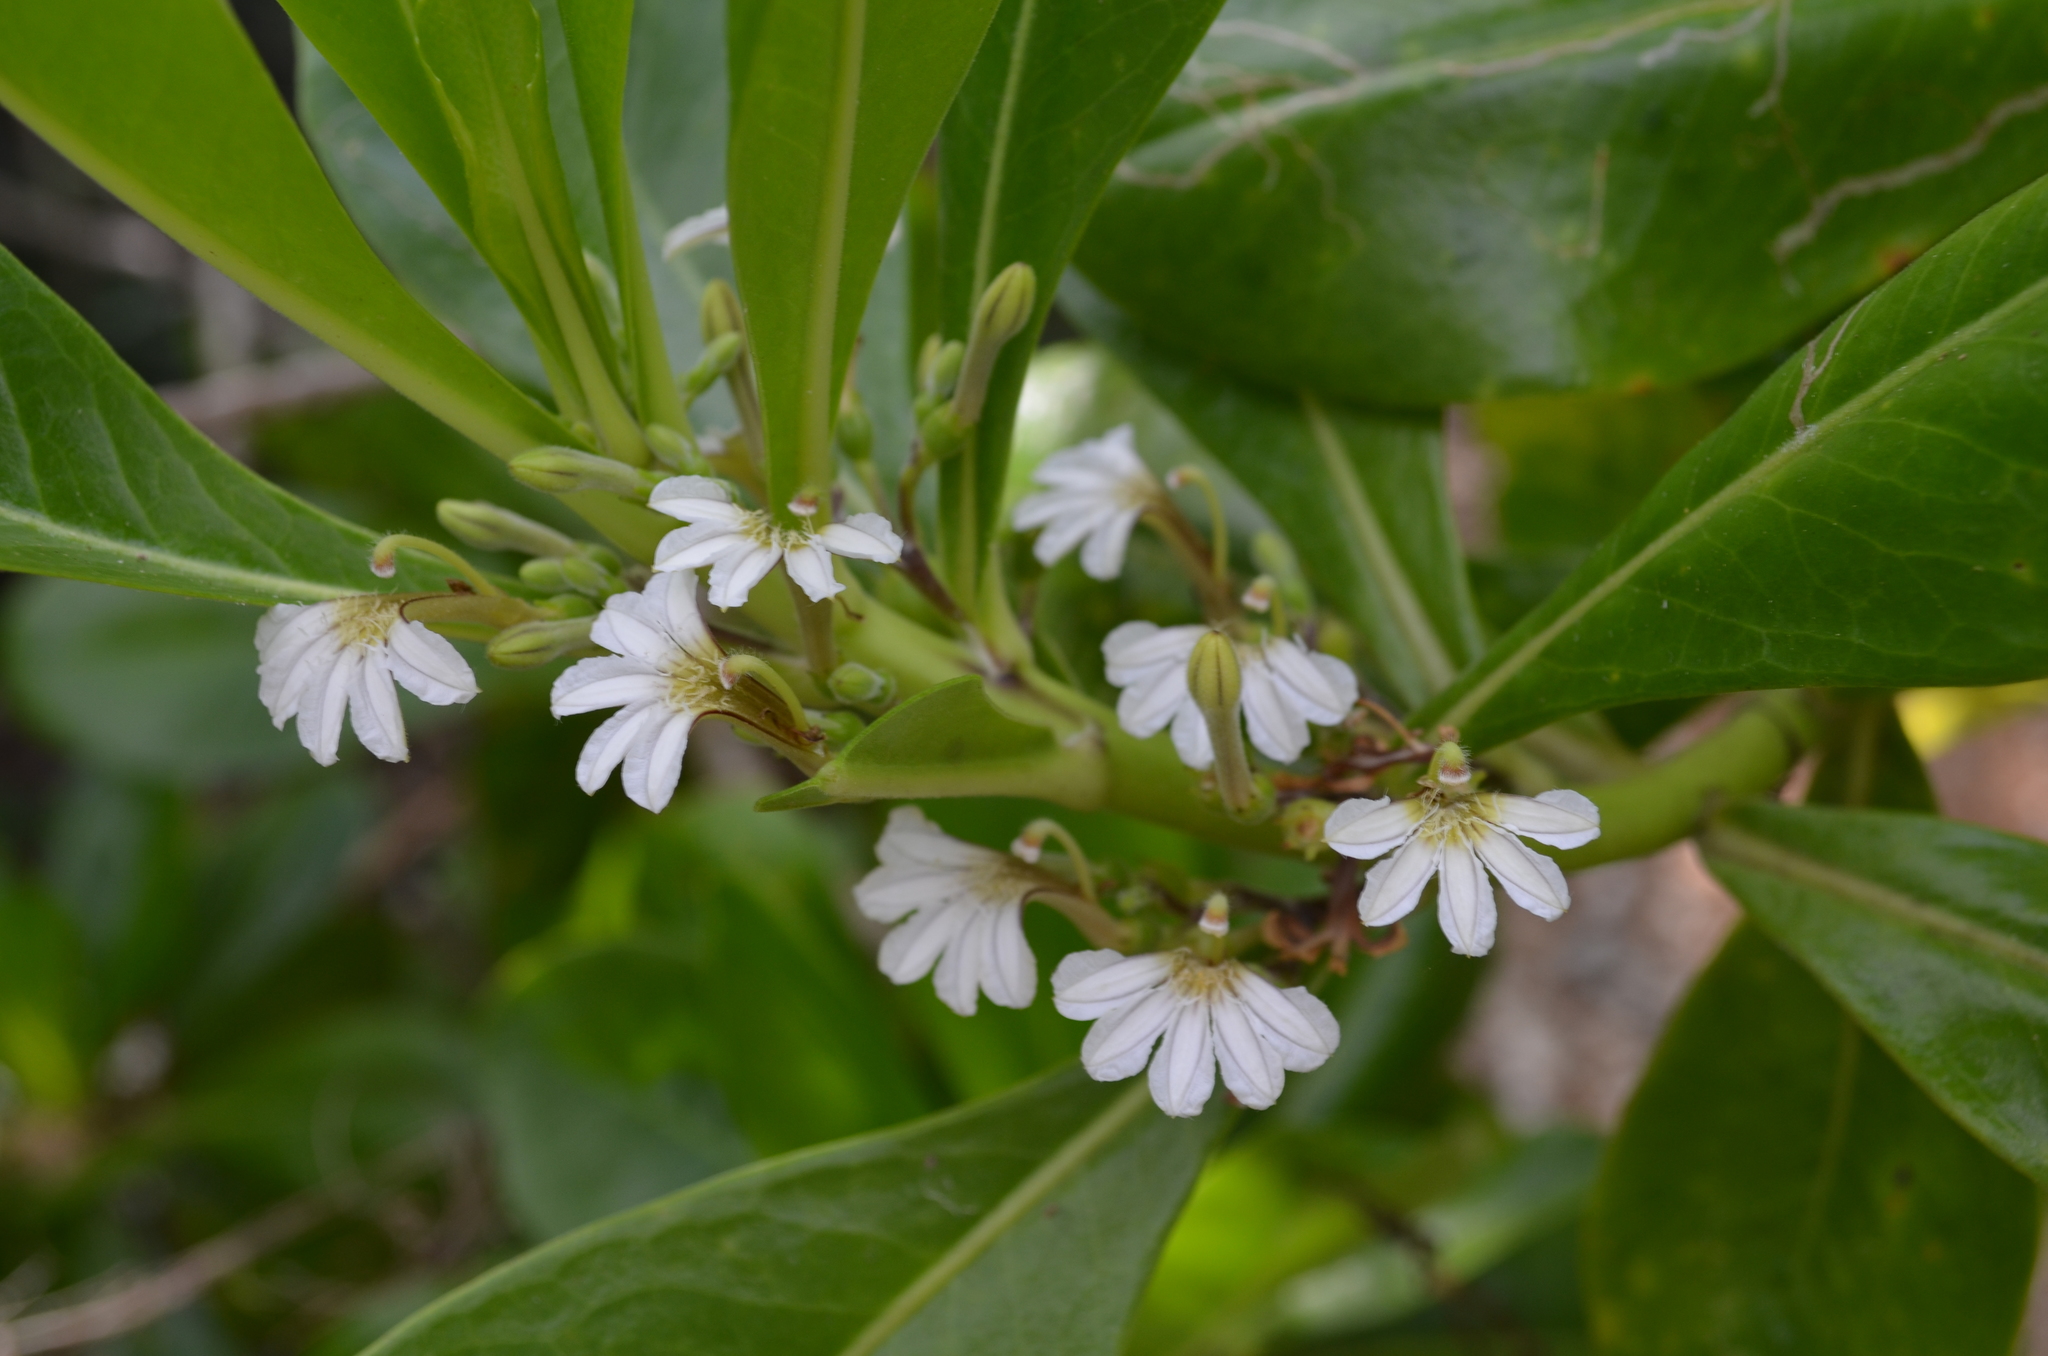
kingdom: Plantae
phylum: Tracheophyta
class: Magnoliopsida
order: Asterales
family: Goodeniaceae
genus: Scaevola
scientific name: Scaevola taccada
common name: Sea lettucetree
